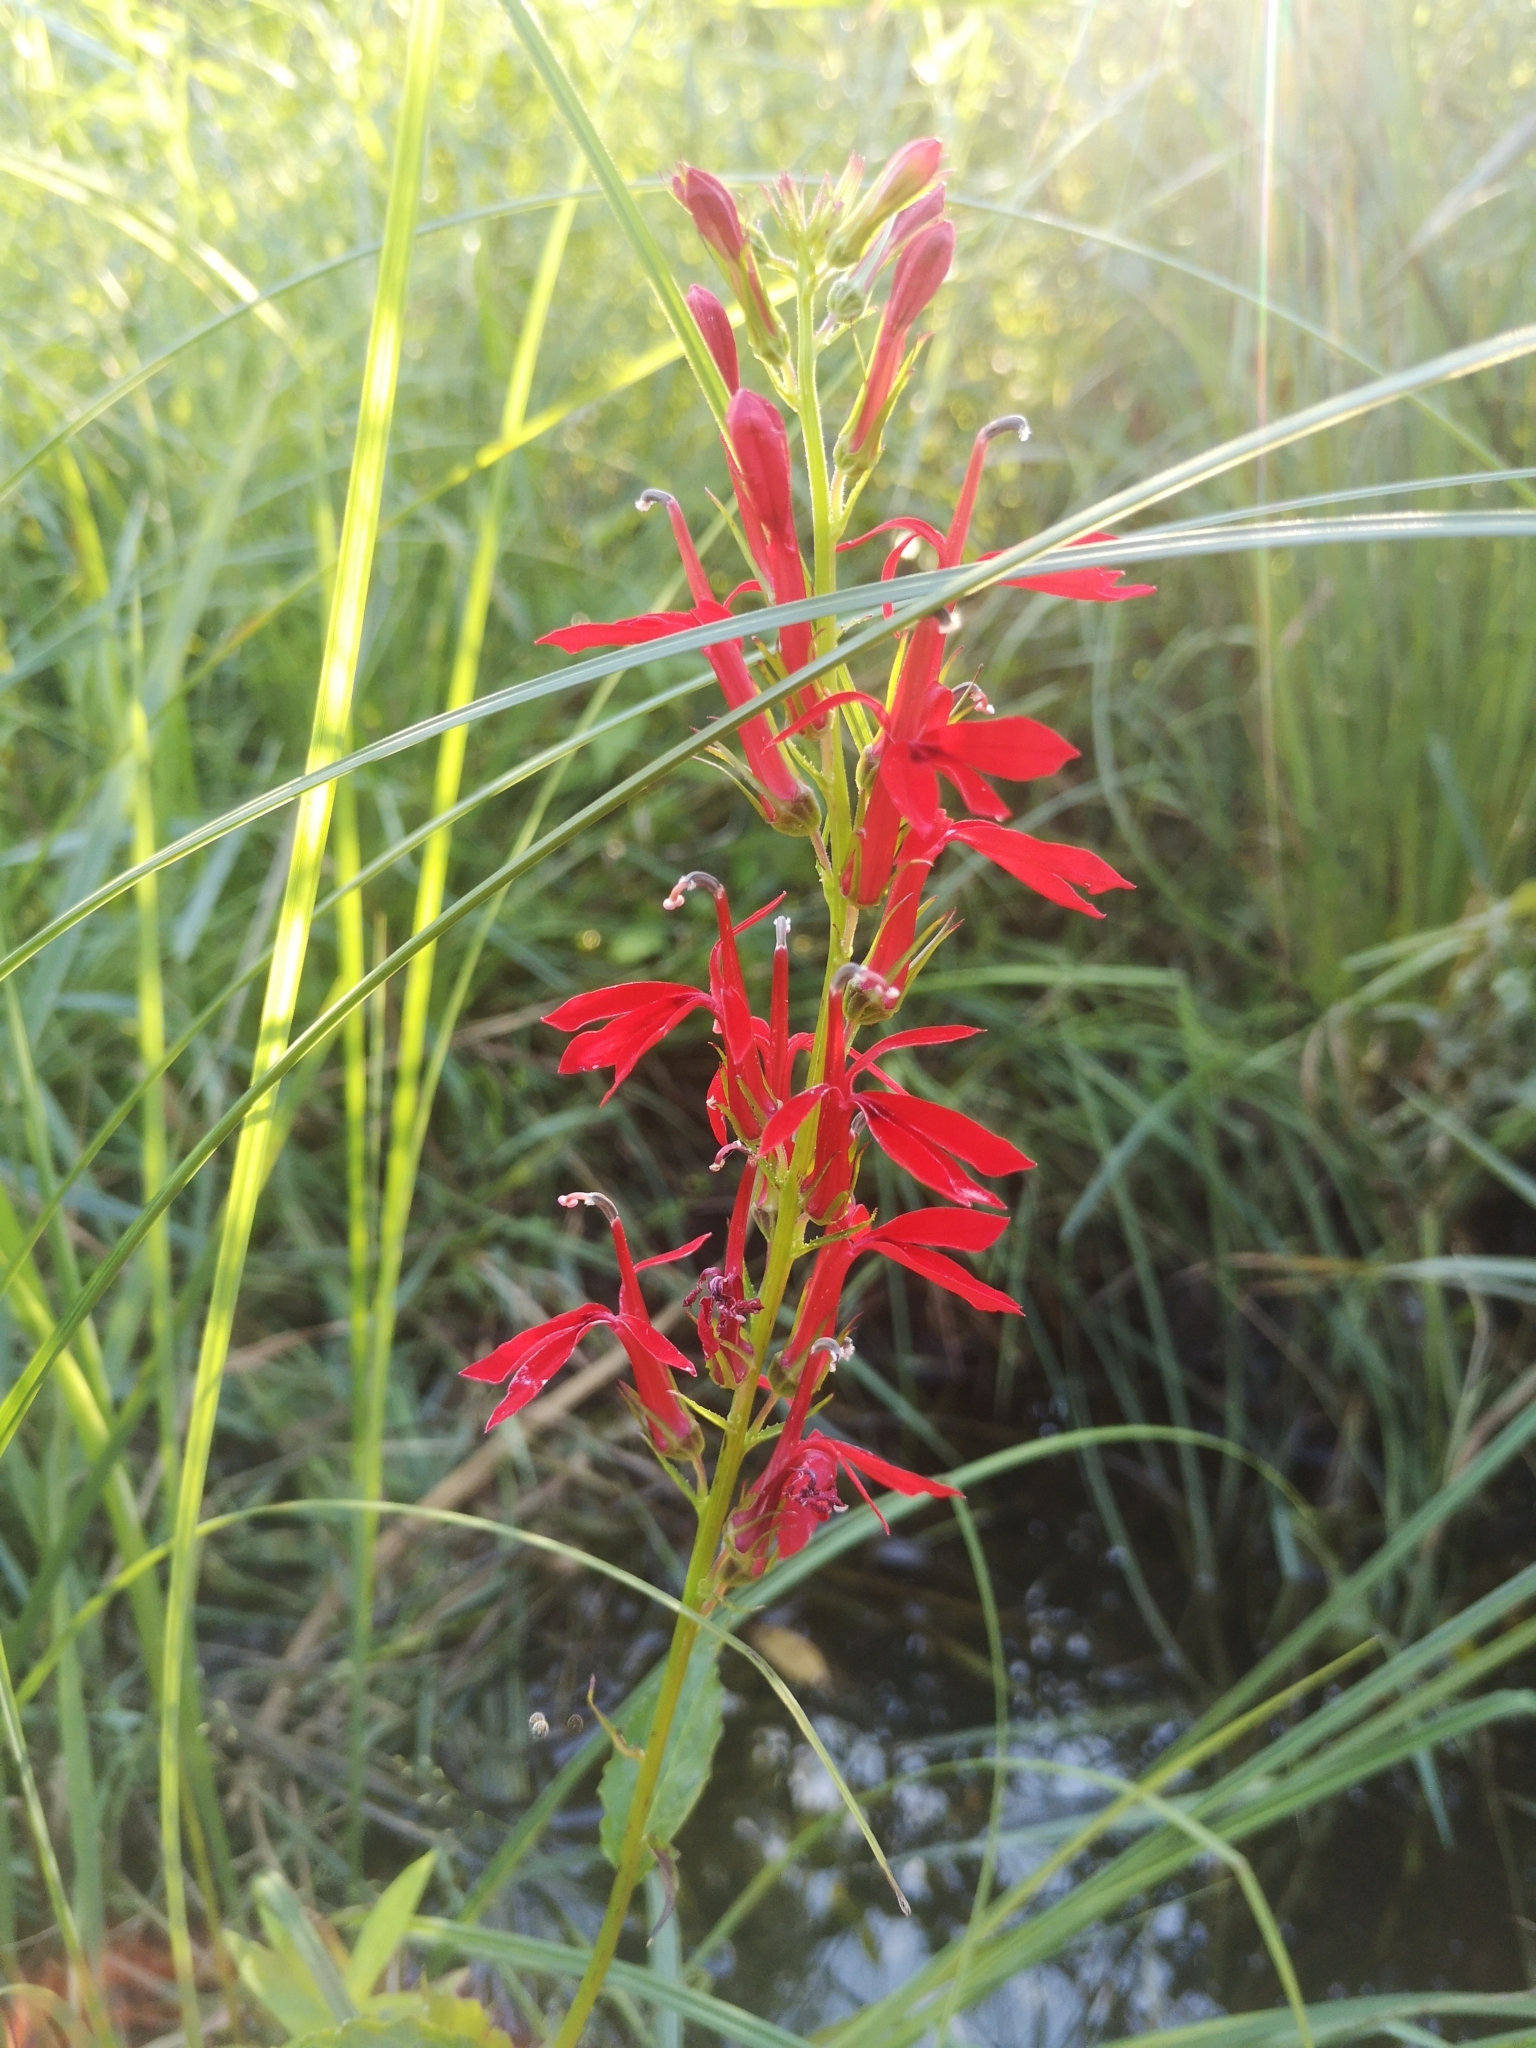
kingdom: Plantae
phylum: Tracheophyta
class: Magnoliopsida
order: Asterales
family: Campanulaceae
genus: Lobelia
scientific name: Lobelia cardinalis
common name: Cardinal flower
